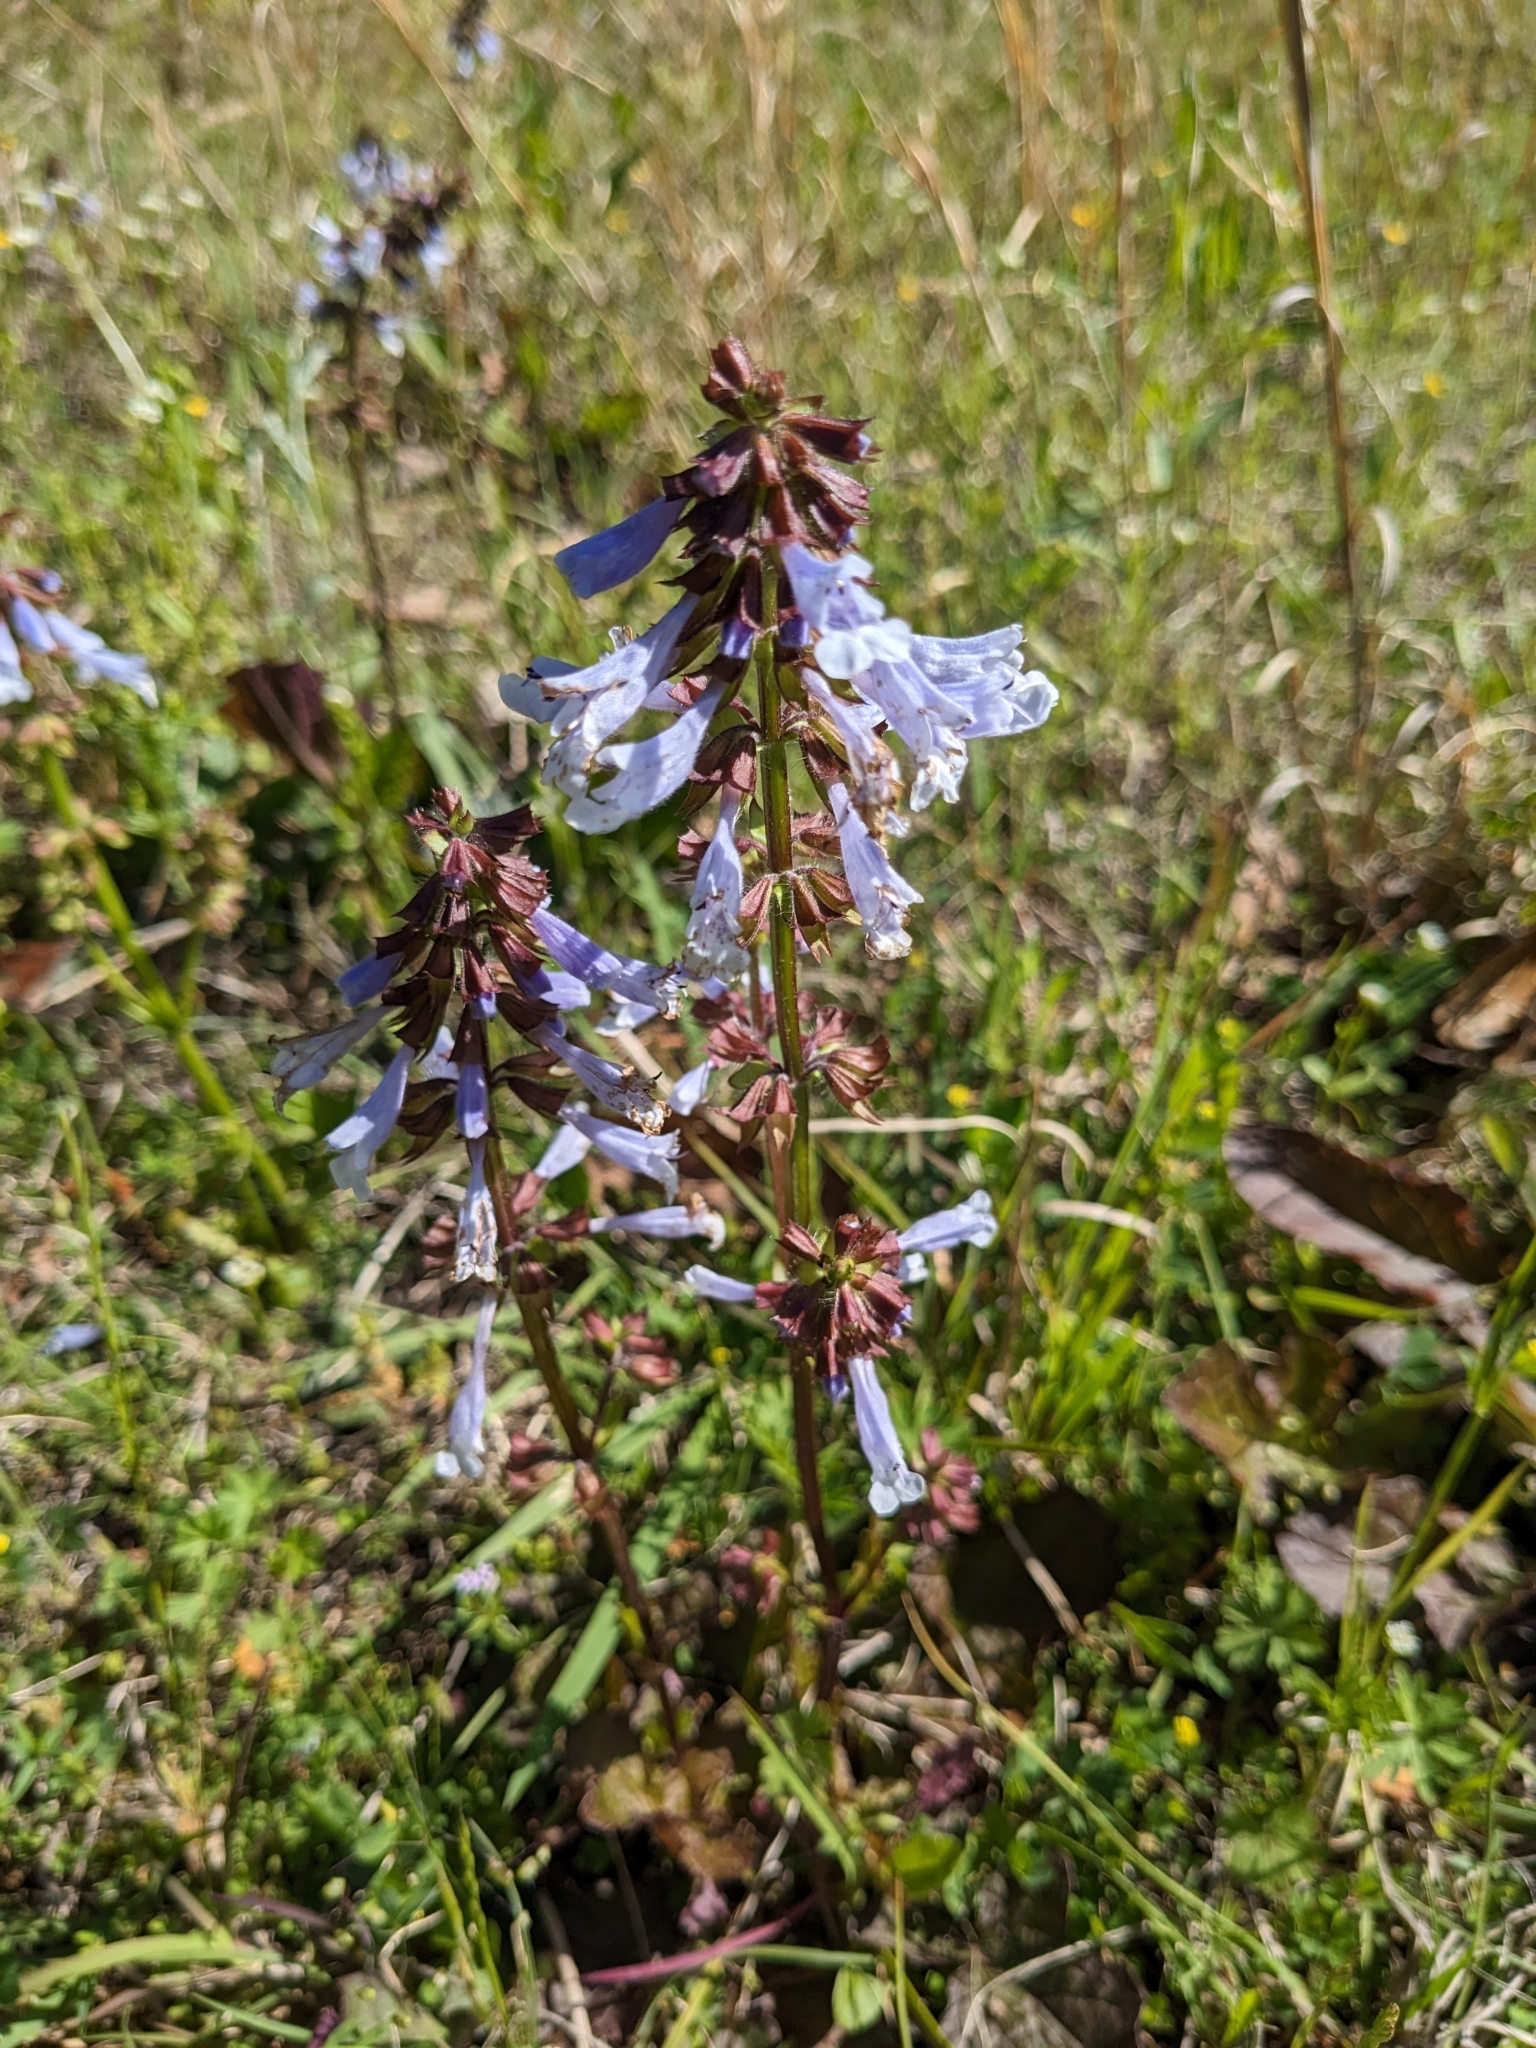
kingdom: Plantae
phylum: Tracheophyta
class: Magnoliopsida
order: Lamiales
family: Lamiaceae
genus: Salvia
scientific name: Salvia lyrata
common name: Cancerweed
